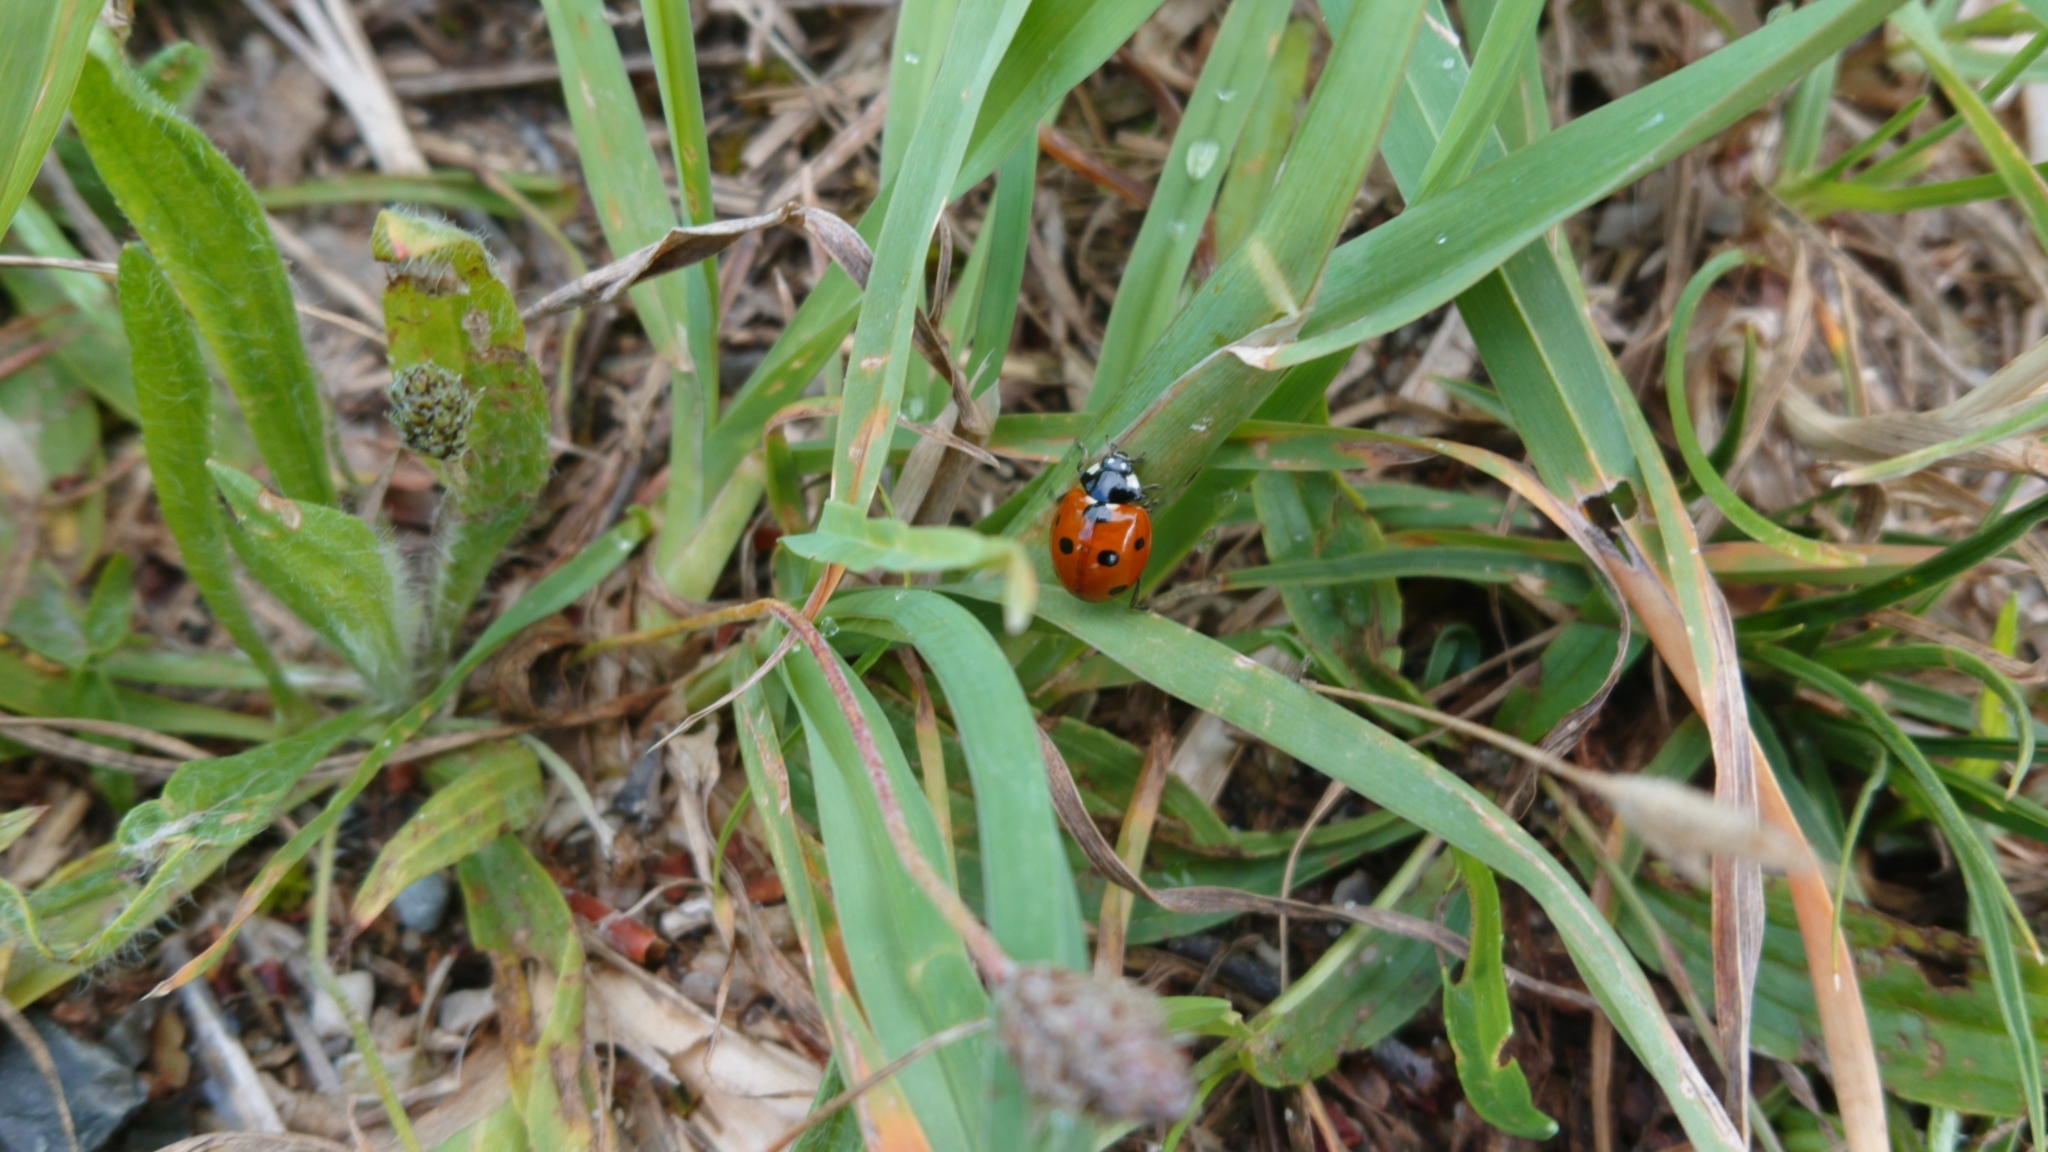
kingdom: Animalia
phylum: Arthropoda
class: Insecta
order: Coleoptera
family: Coccinellidae
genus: Coccinella
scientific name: Coccinella septempunctata
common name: Sevenspotted lady beetle
